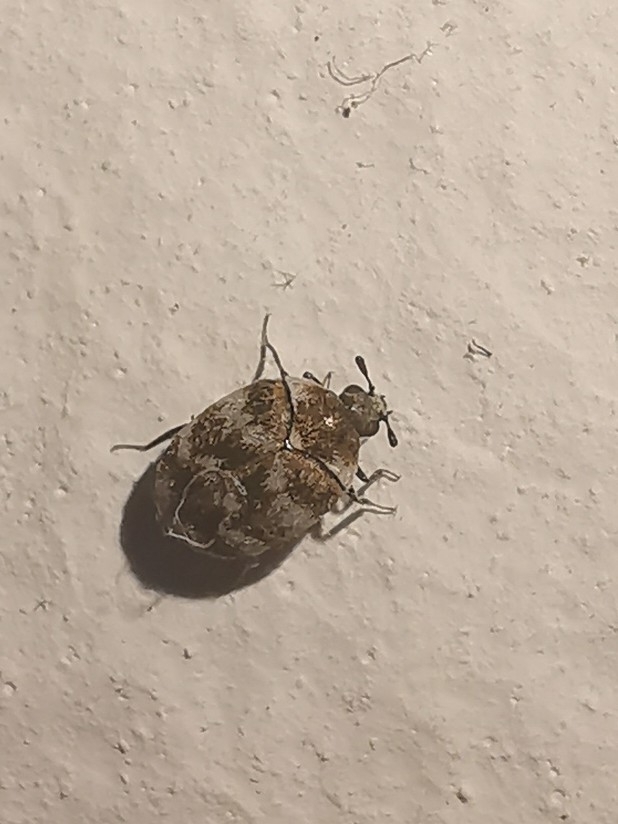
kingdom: Animalia
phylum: Arthropoda
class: Insecta
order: Coleoptera
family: Dermestidae
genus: Anthrenus
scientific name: Anthrenus verbasci
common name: Varied carpet beetle
